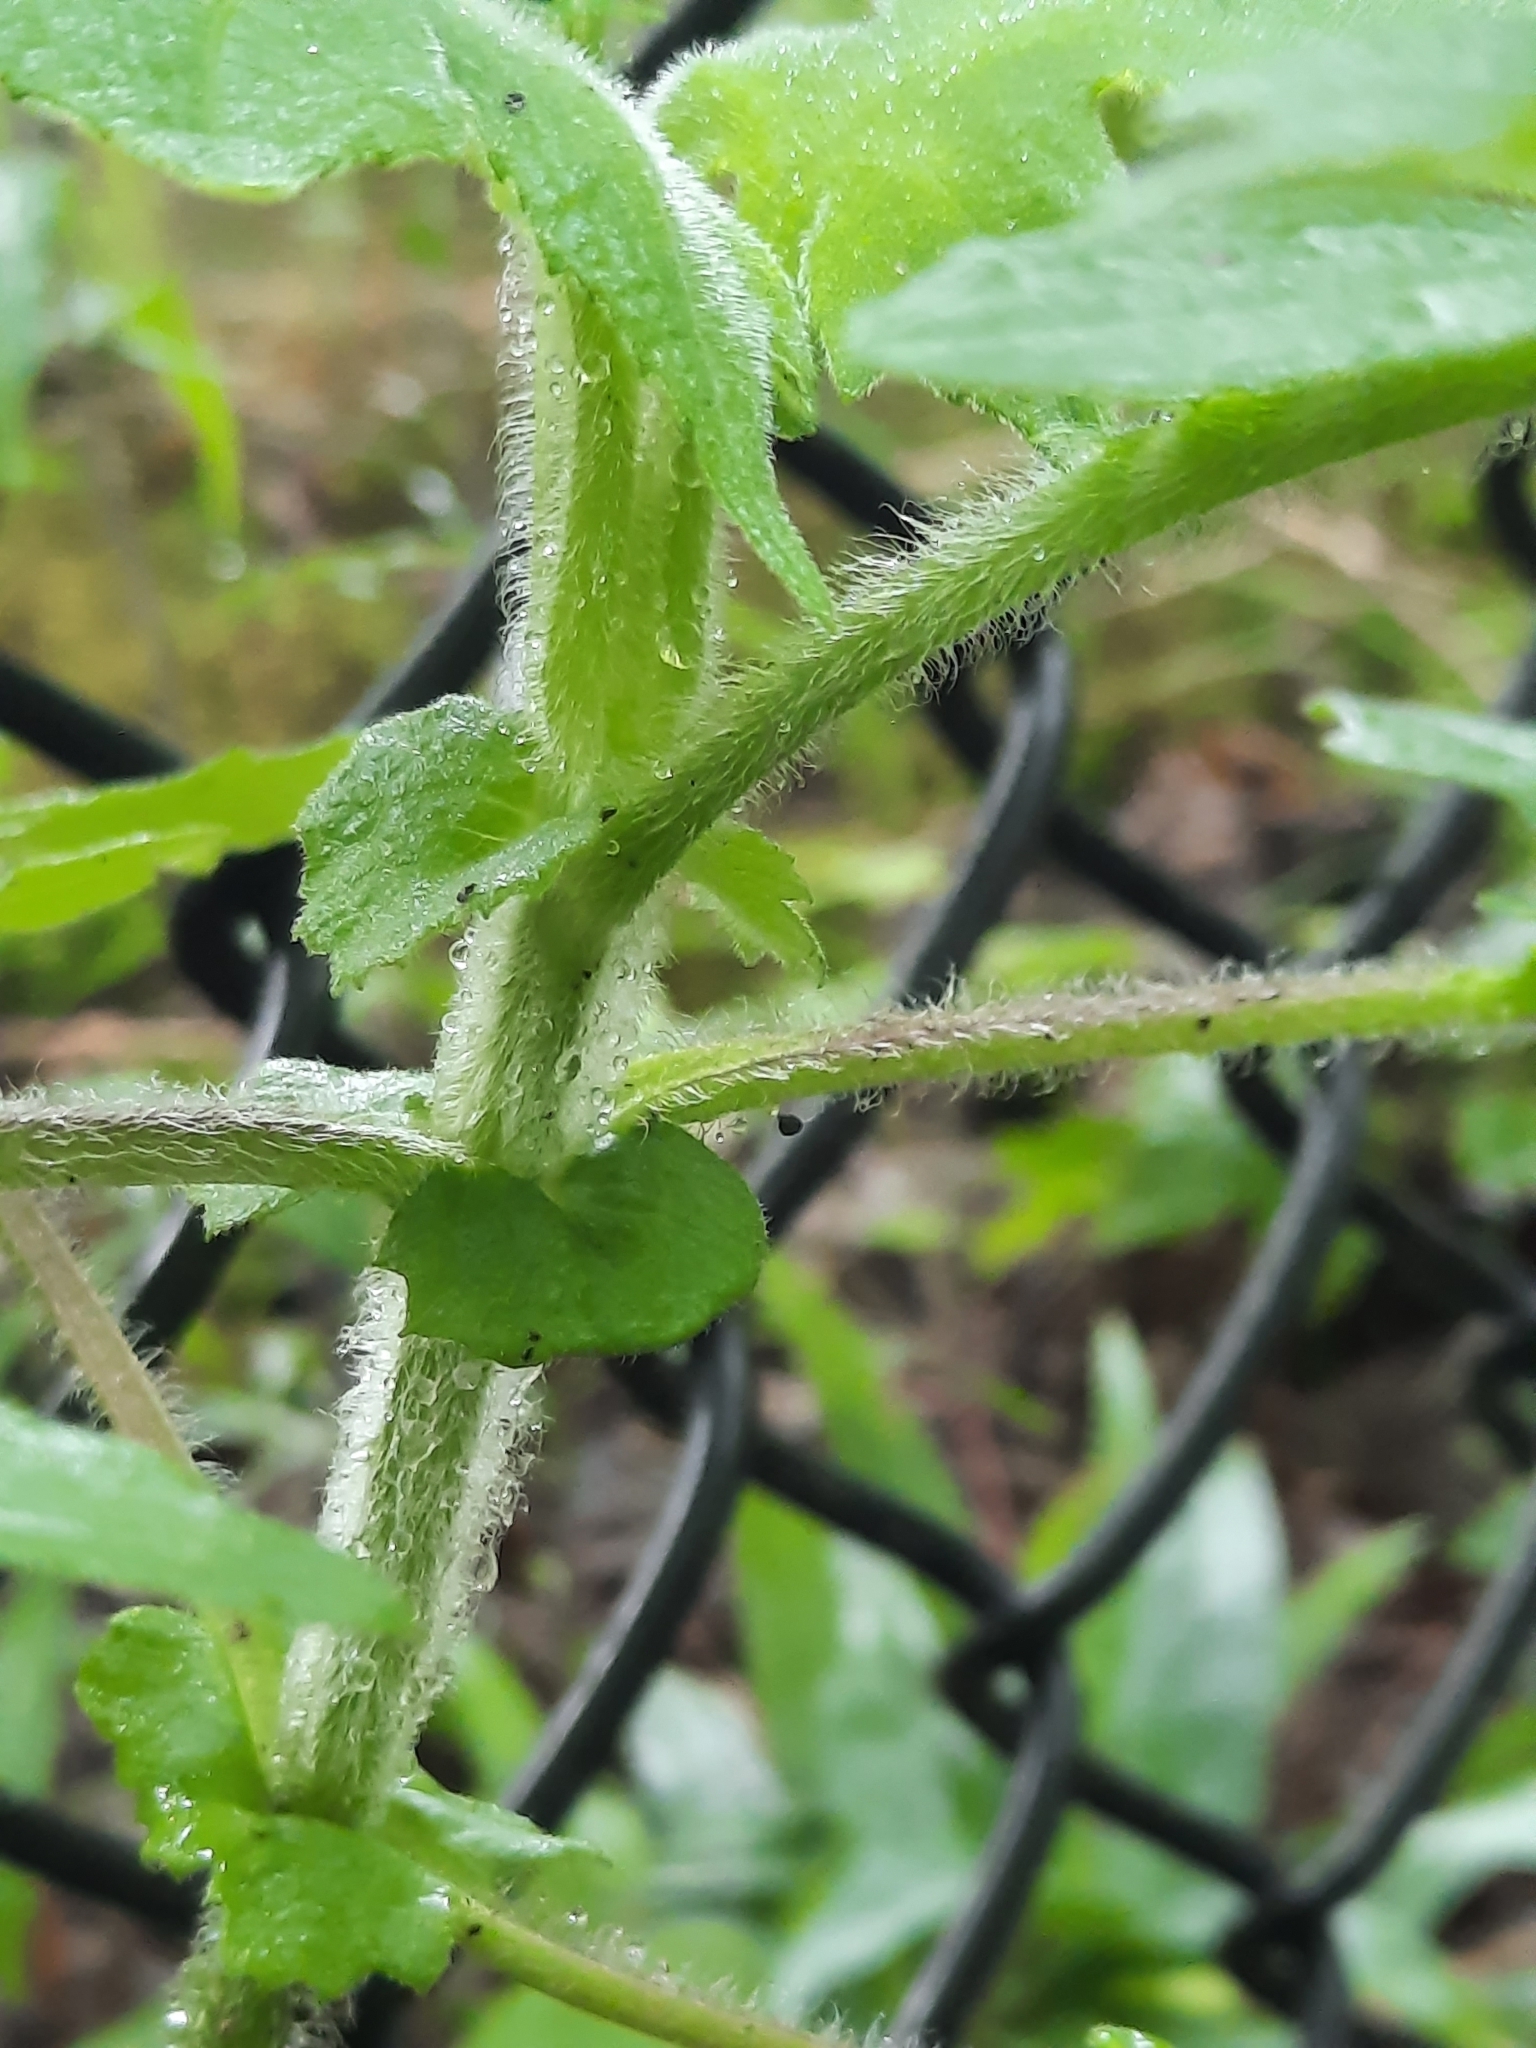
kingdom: Plantae
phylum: Tracheophyta
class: Magnoliopsida
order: Asterales
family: Asteraceae
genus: Polymnia
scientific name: Polymnia canadensis
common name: Pale-flowered leafcup
